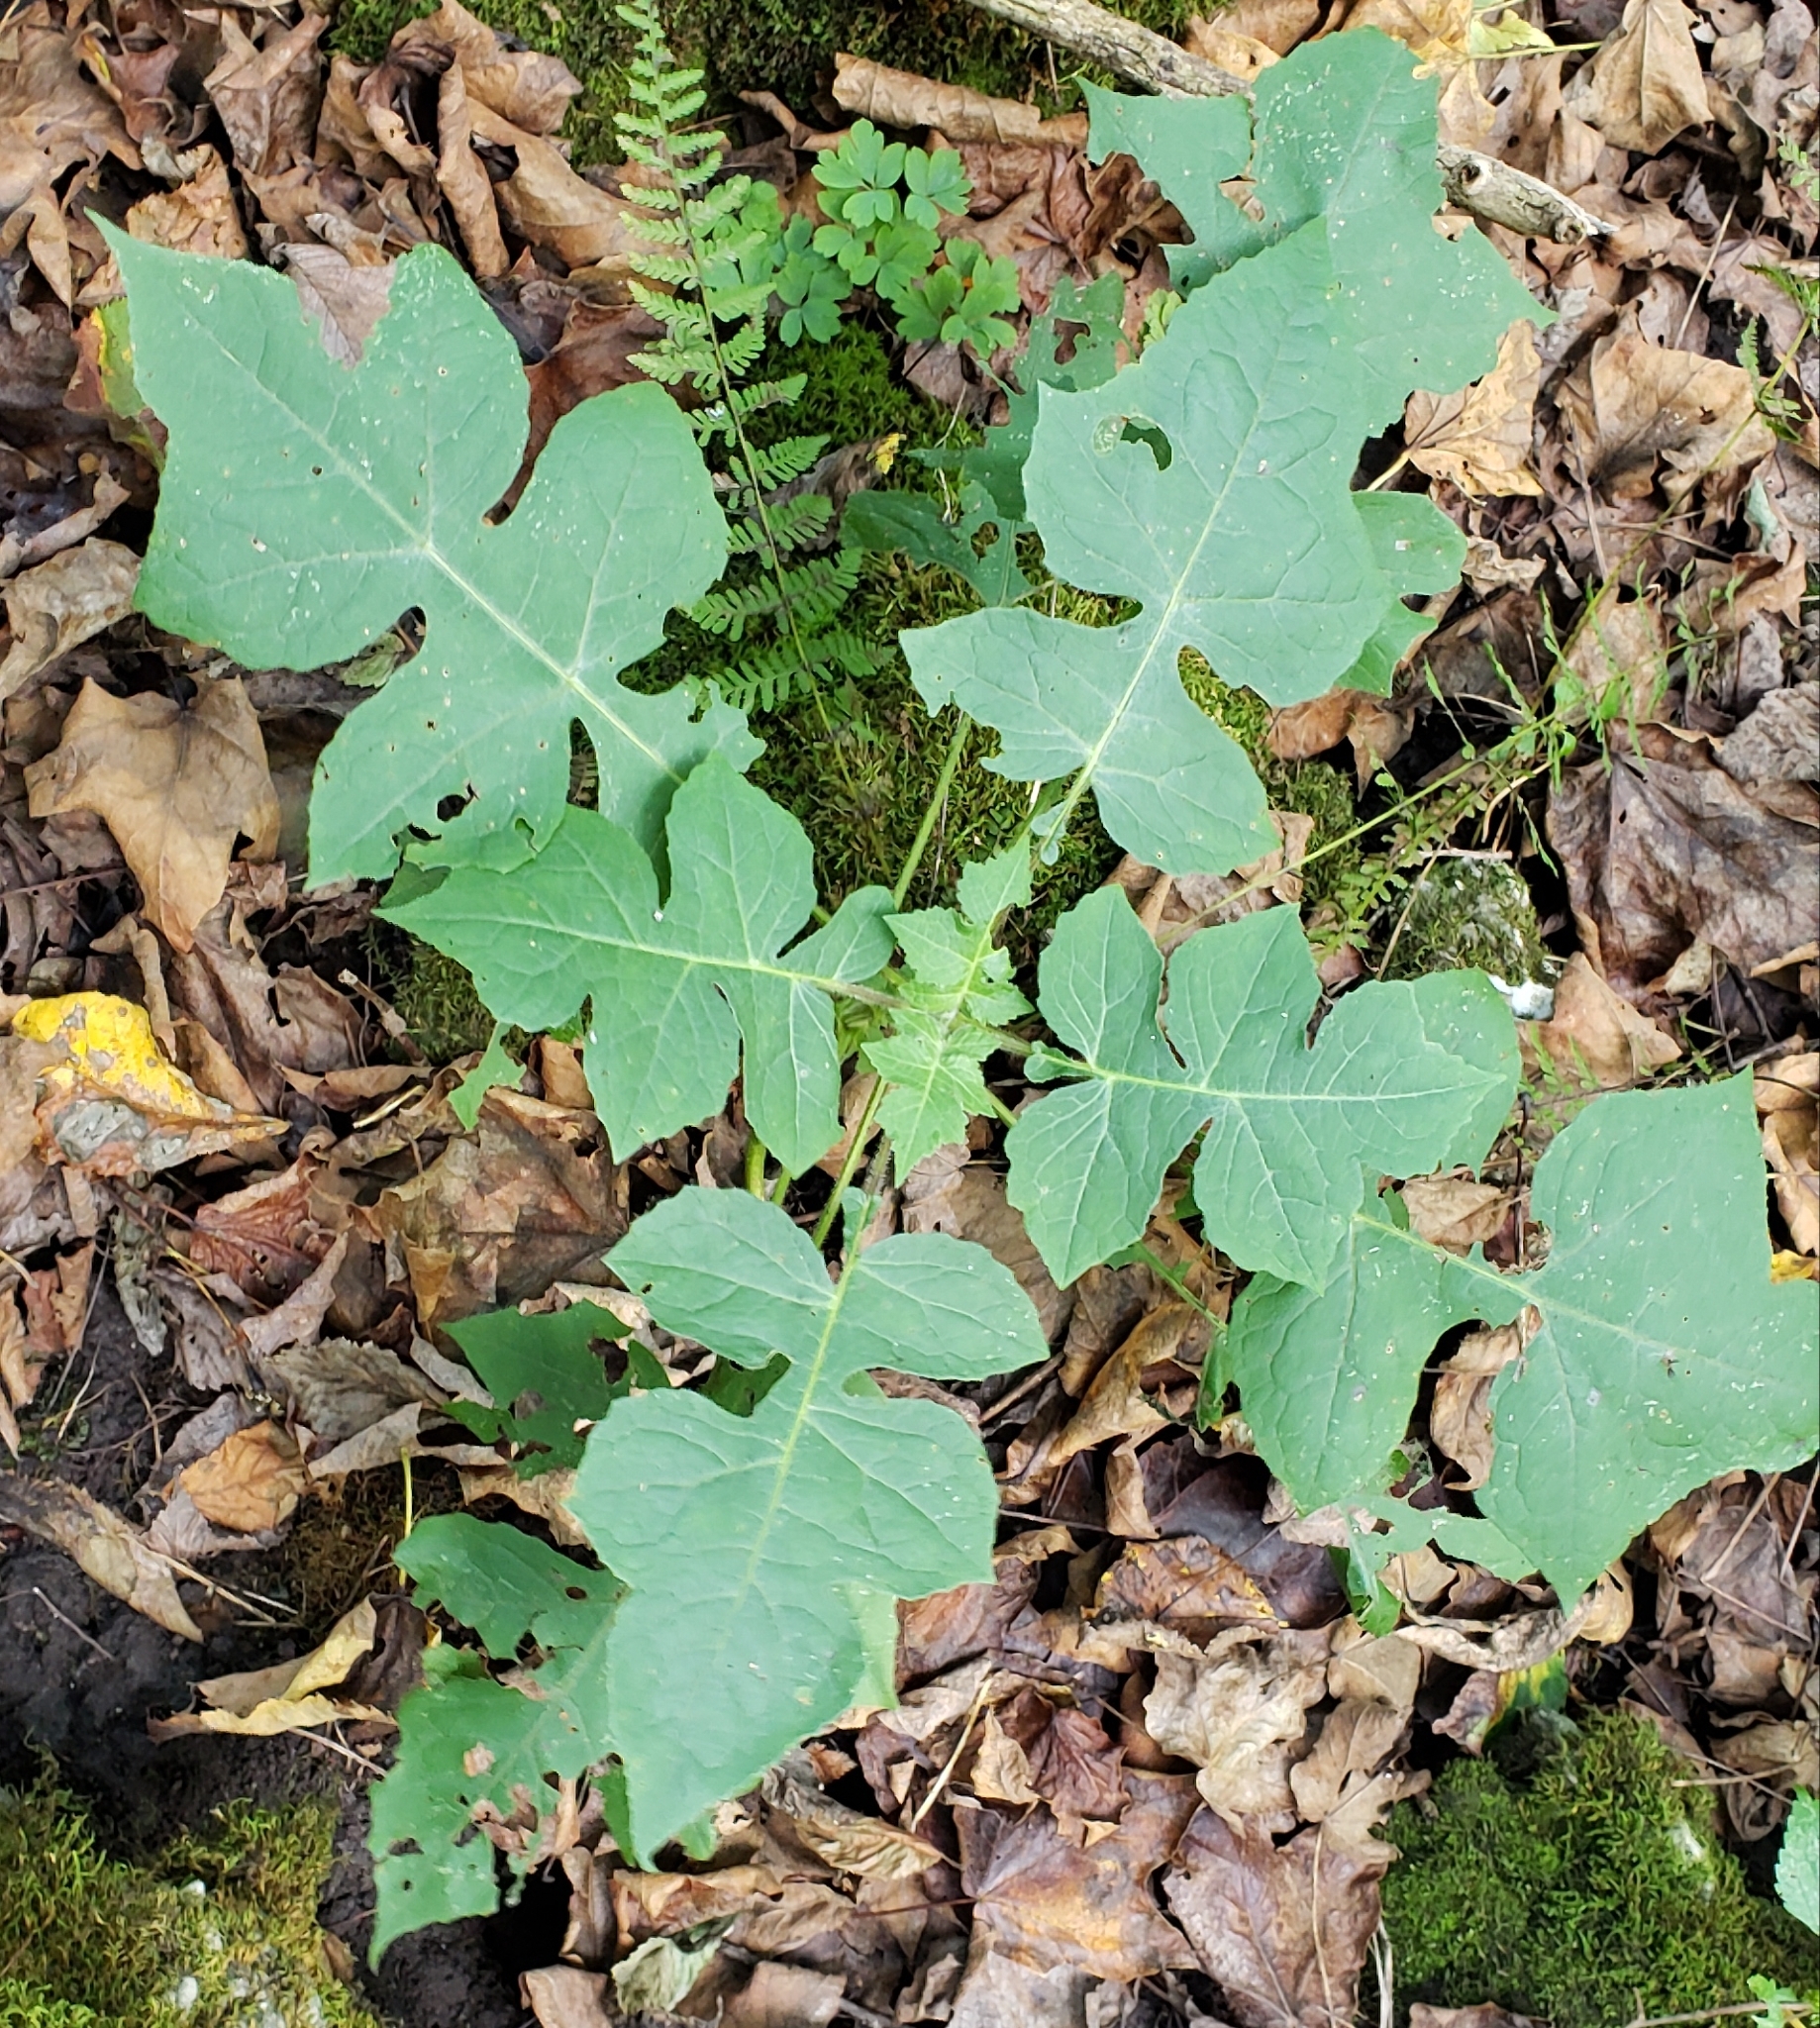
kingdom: Plantae
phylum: Tracheophyta
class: Magnoliopsida
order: Asterales
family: Asteraceae
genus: Polymnia
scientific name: Polymnia canadensis
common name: Pale-flowered leafcup
